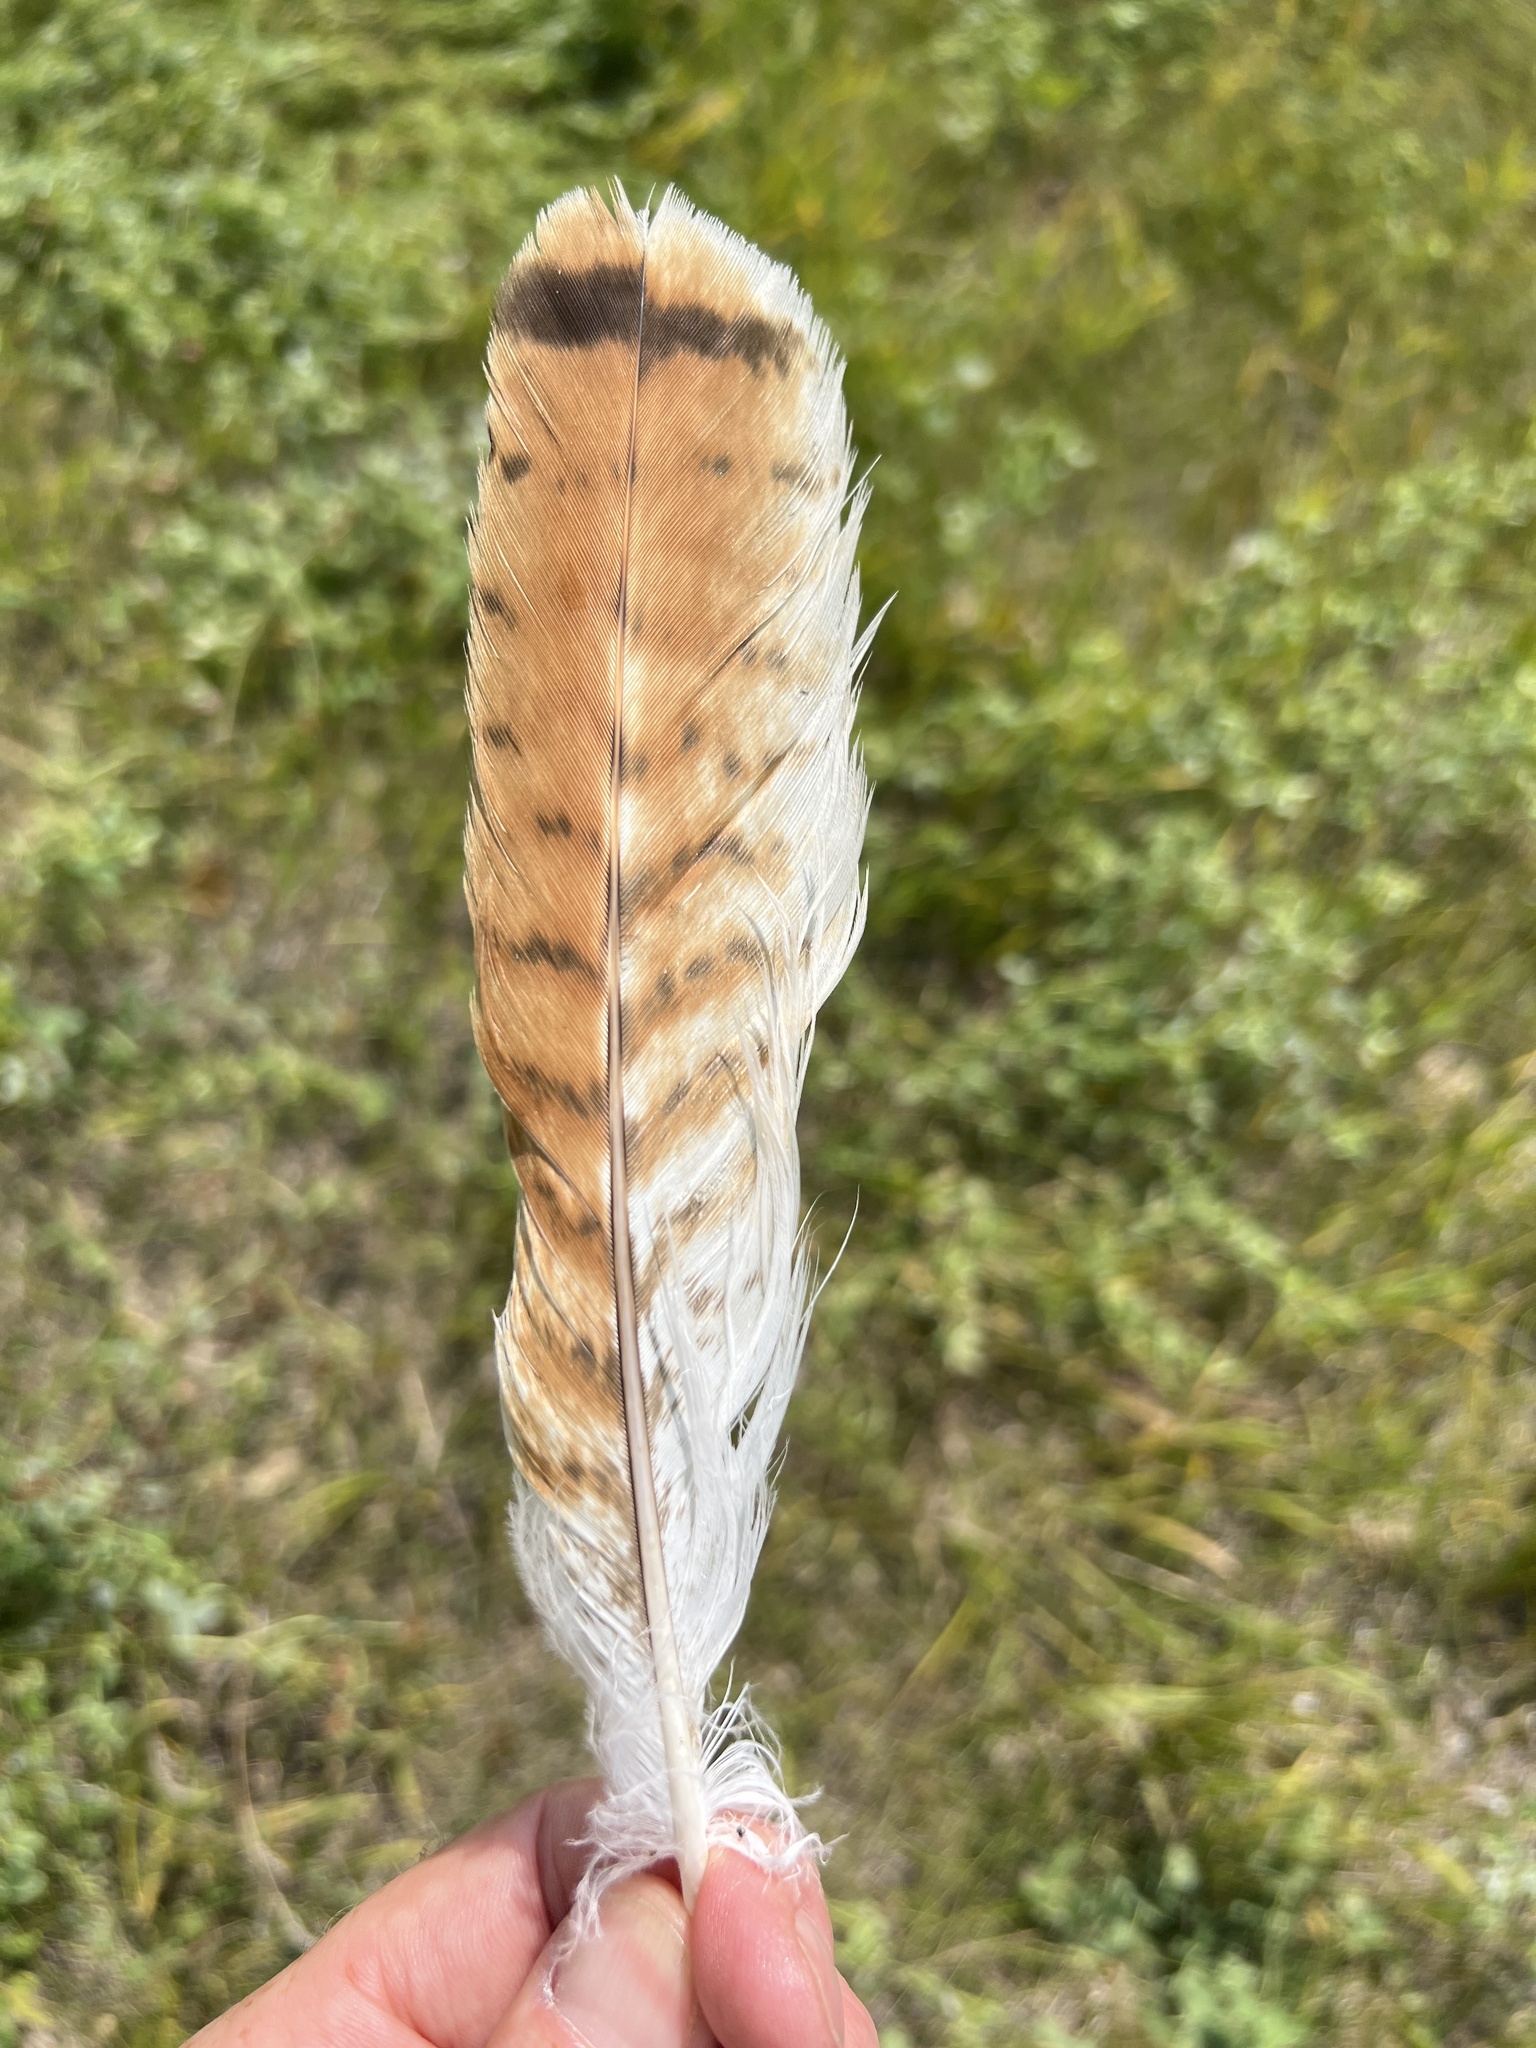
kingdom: Animalia
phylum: Chordata
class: Aves
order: Accipitriformes
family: Accipitridae
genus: Buteo
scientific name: Buteo jamaicensis
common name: Red-tailed hawk
